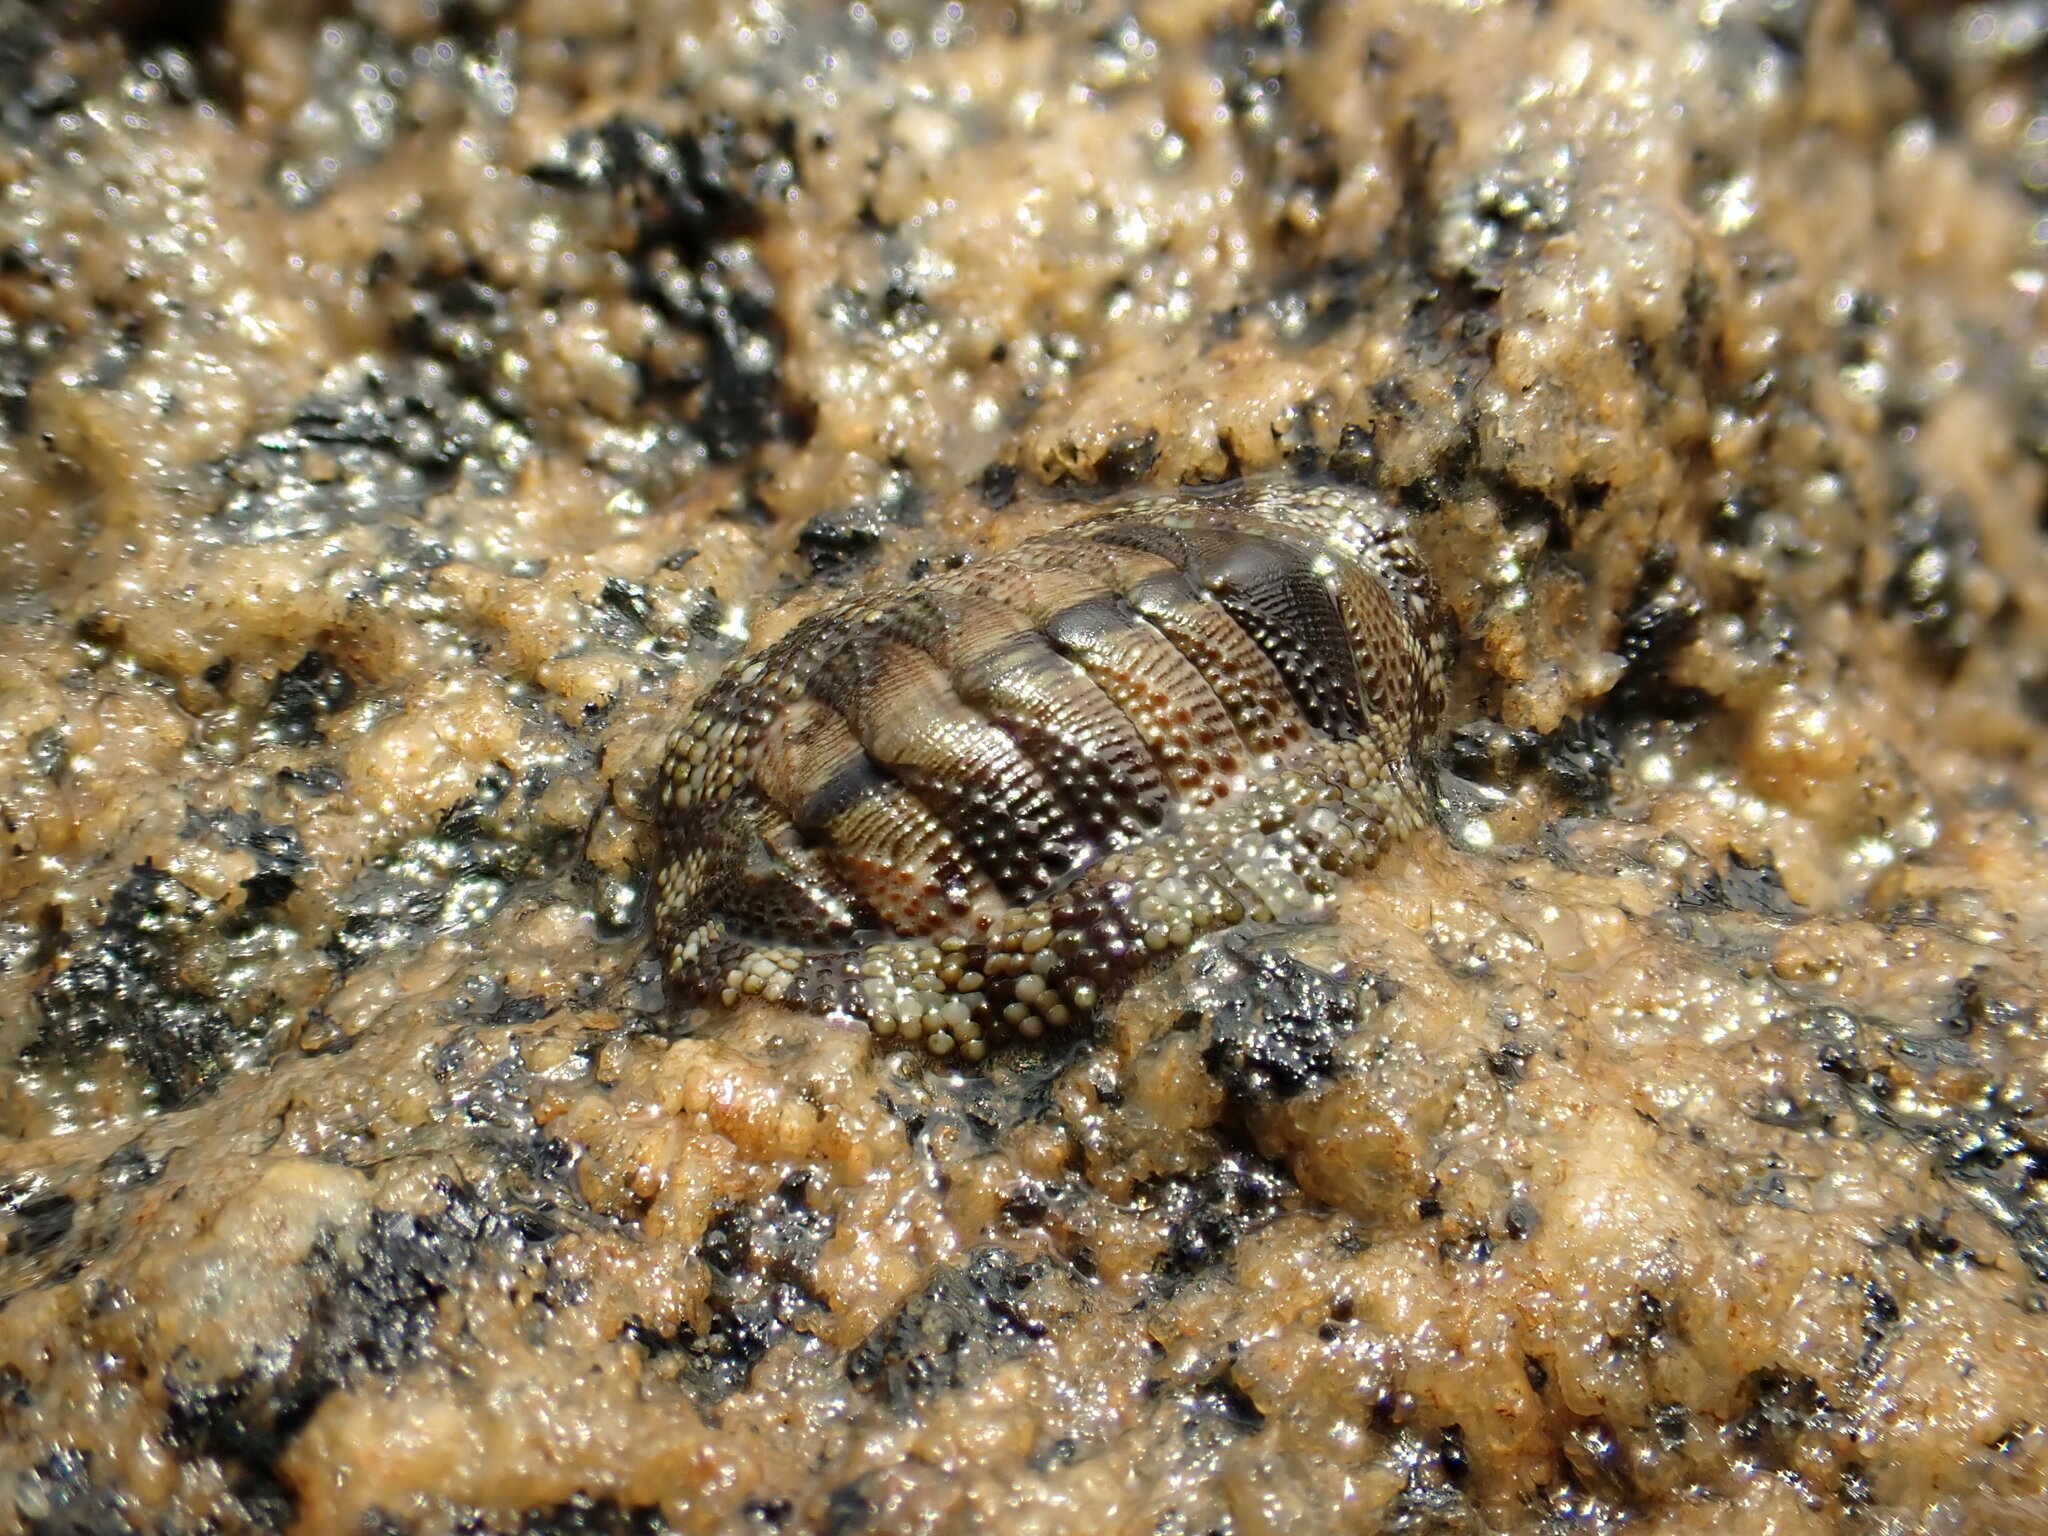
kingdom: Animalia
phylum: Mollusca
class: Polyplacophora
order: Chitonida
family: Chitonidae
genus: Sypharochiton
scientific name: Sypharochiton pelliserpentis
